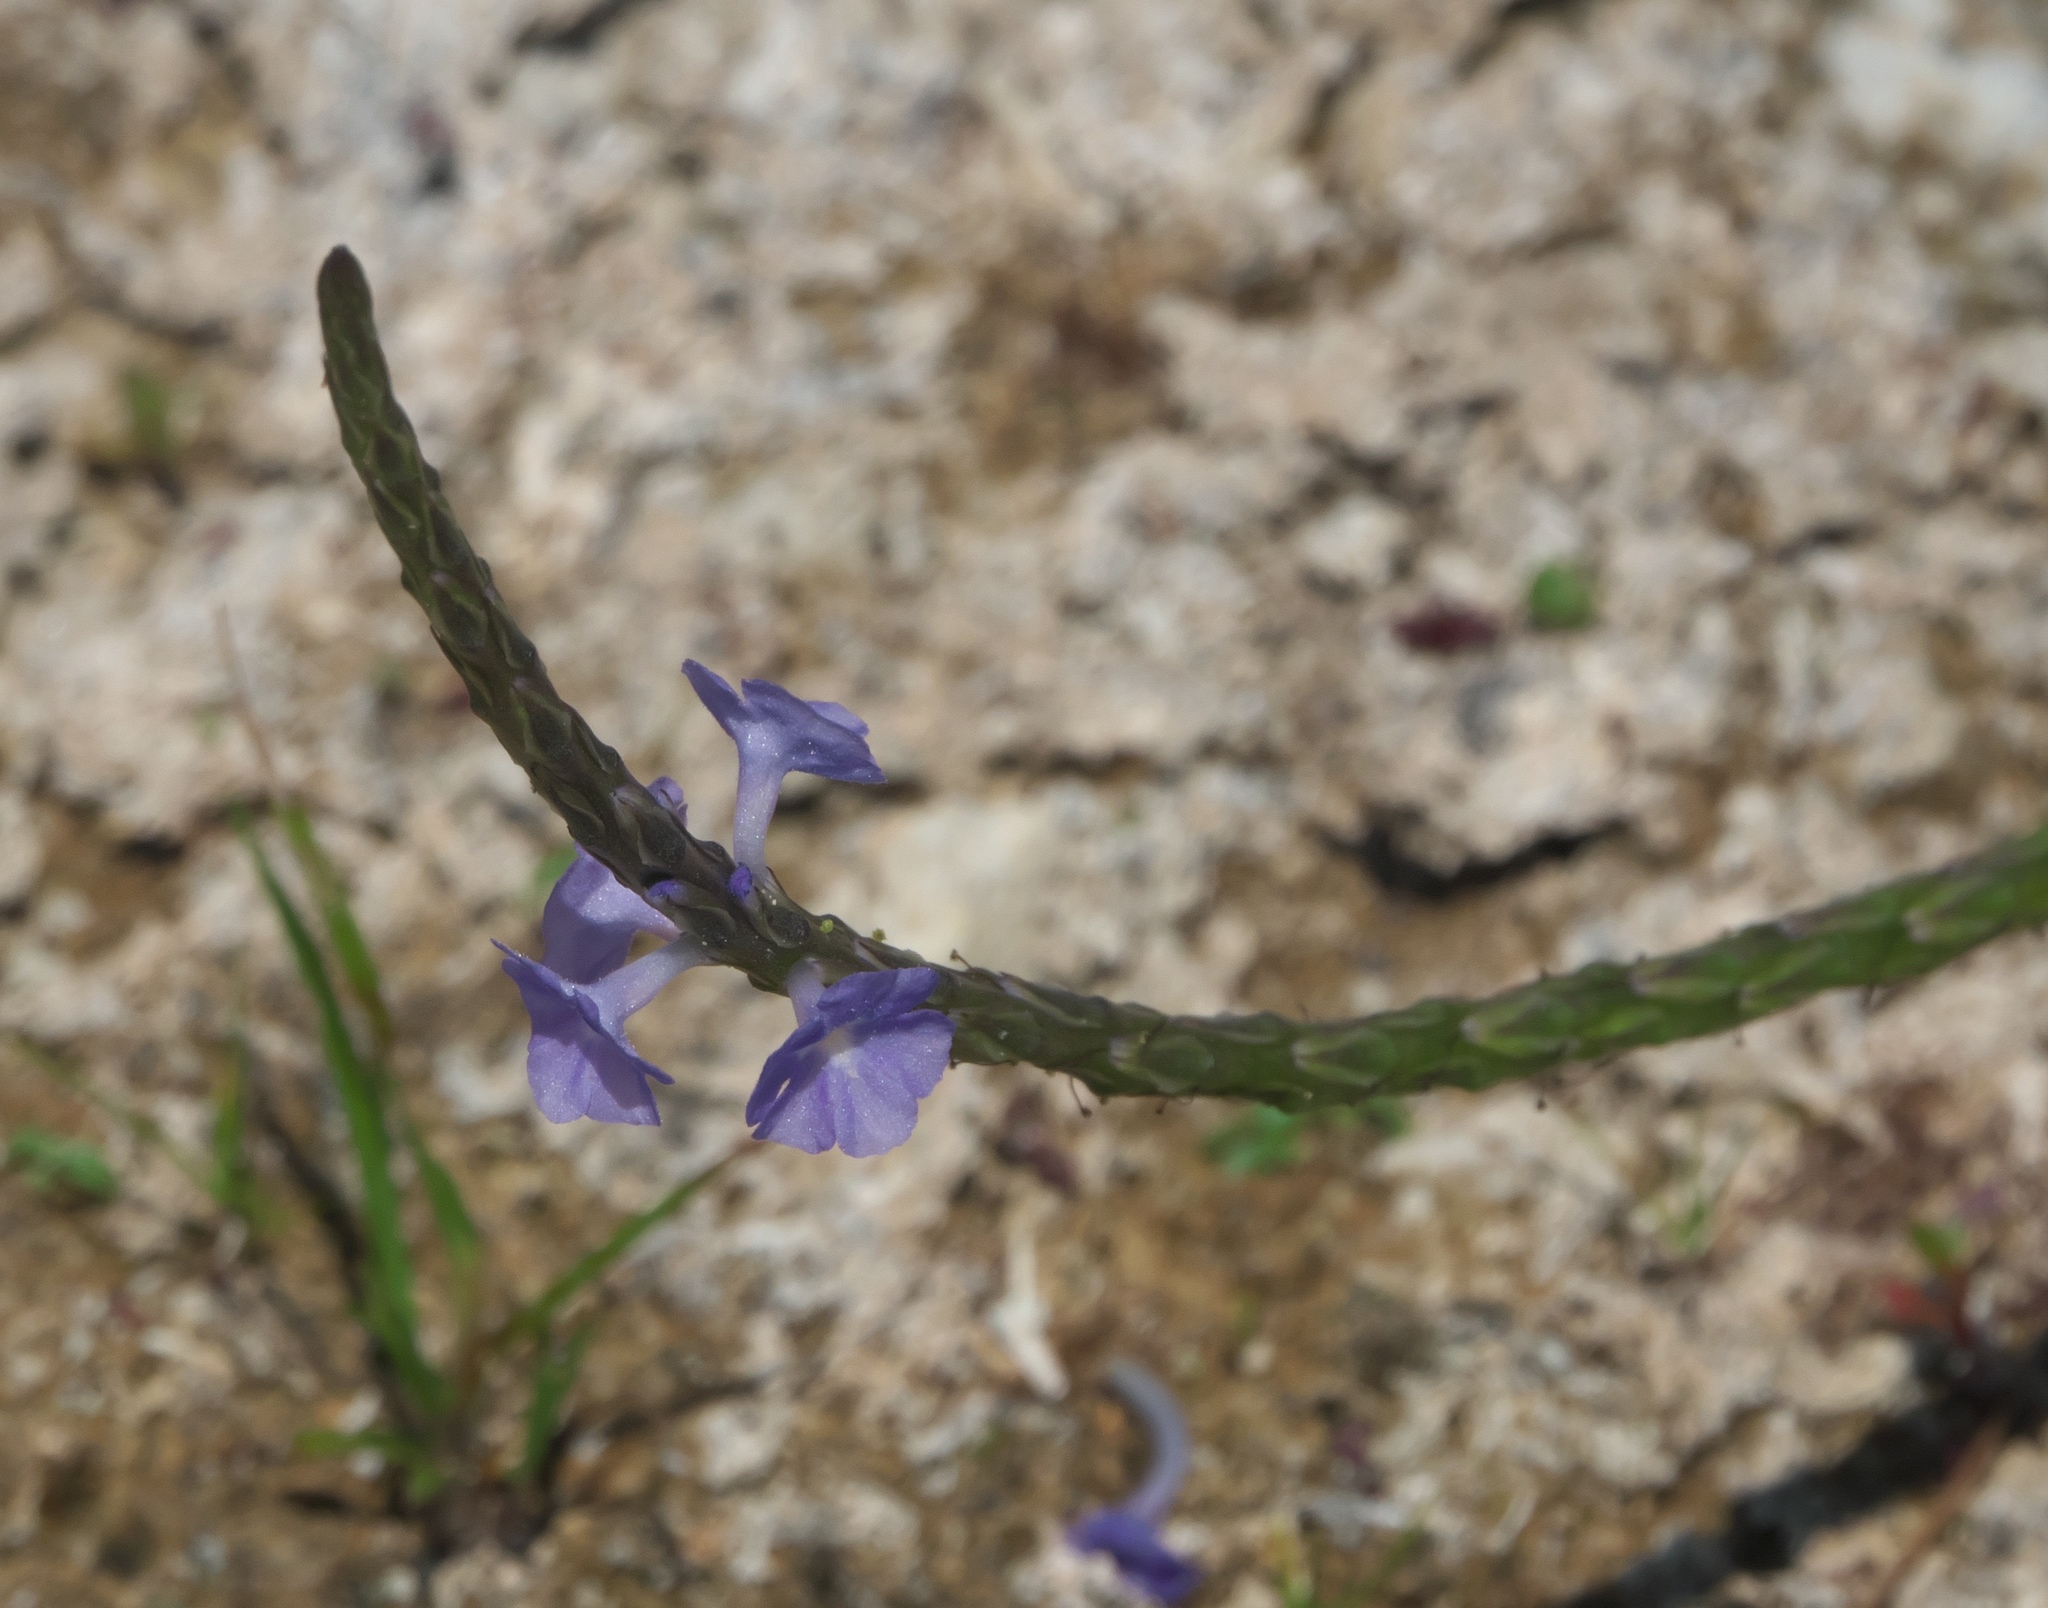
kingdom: Plantae
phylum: Tracheophyta
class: Magnoliopsida
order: Lamiales
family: Verbenaceae
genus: Stachytarpheta
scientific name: Stachytarpheta jamaicensis
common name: Light-blue snakeweed
